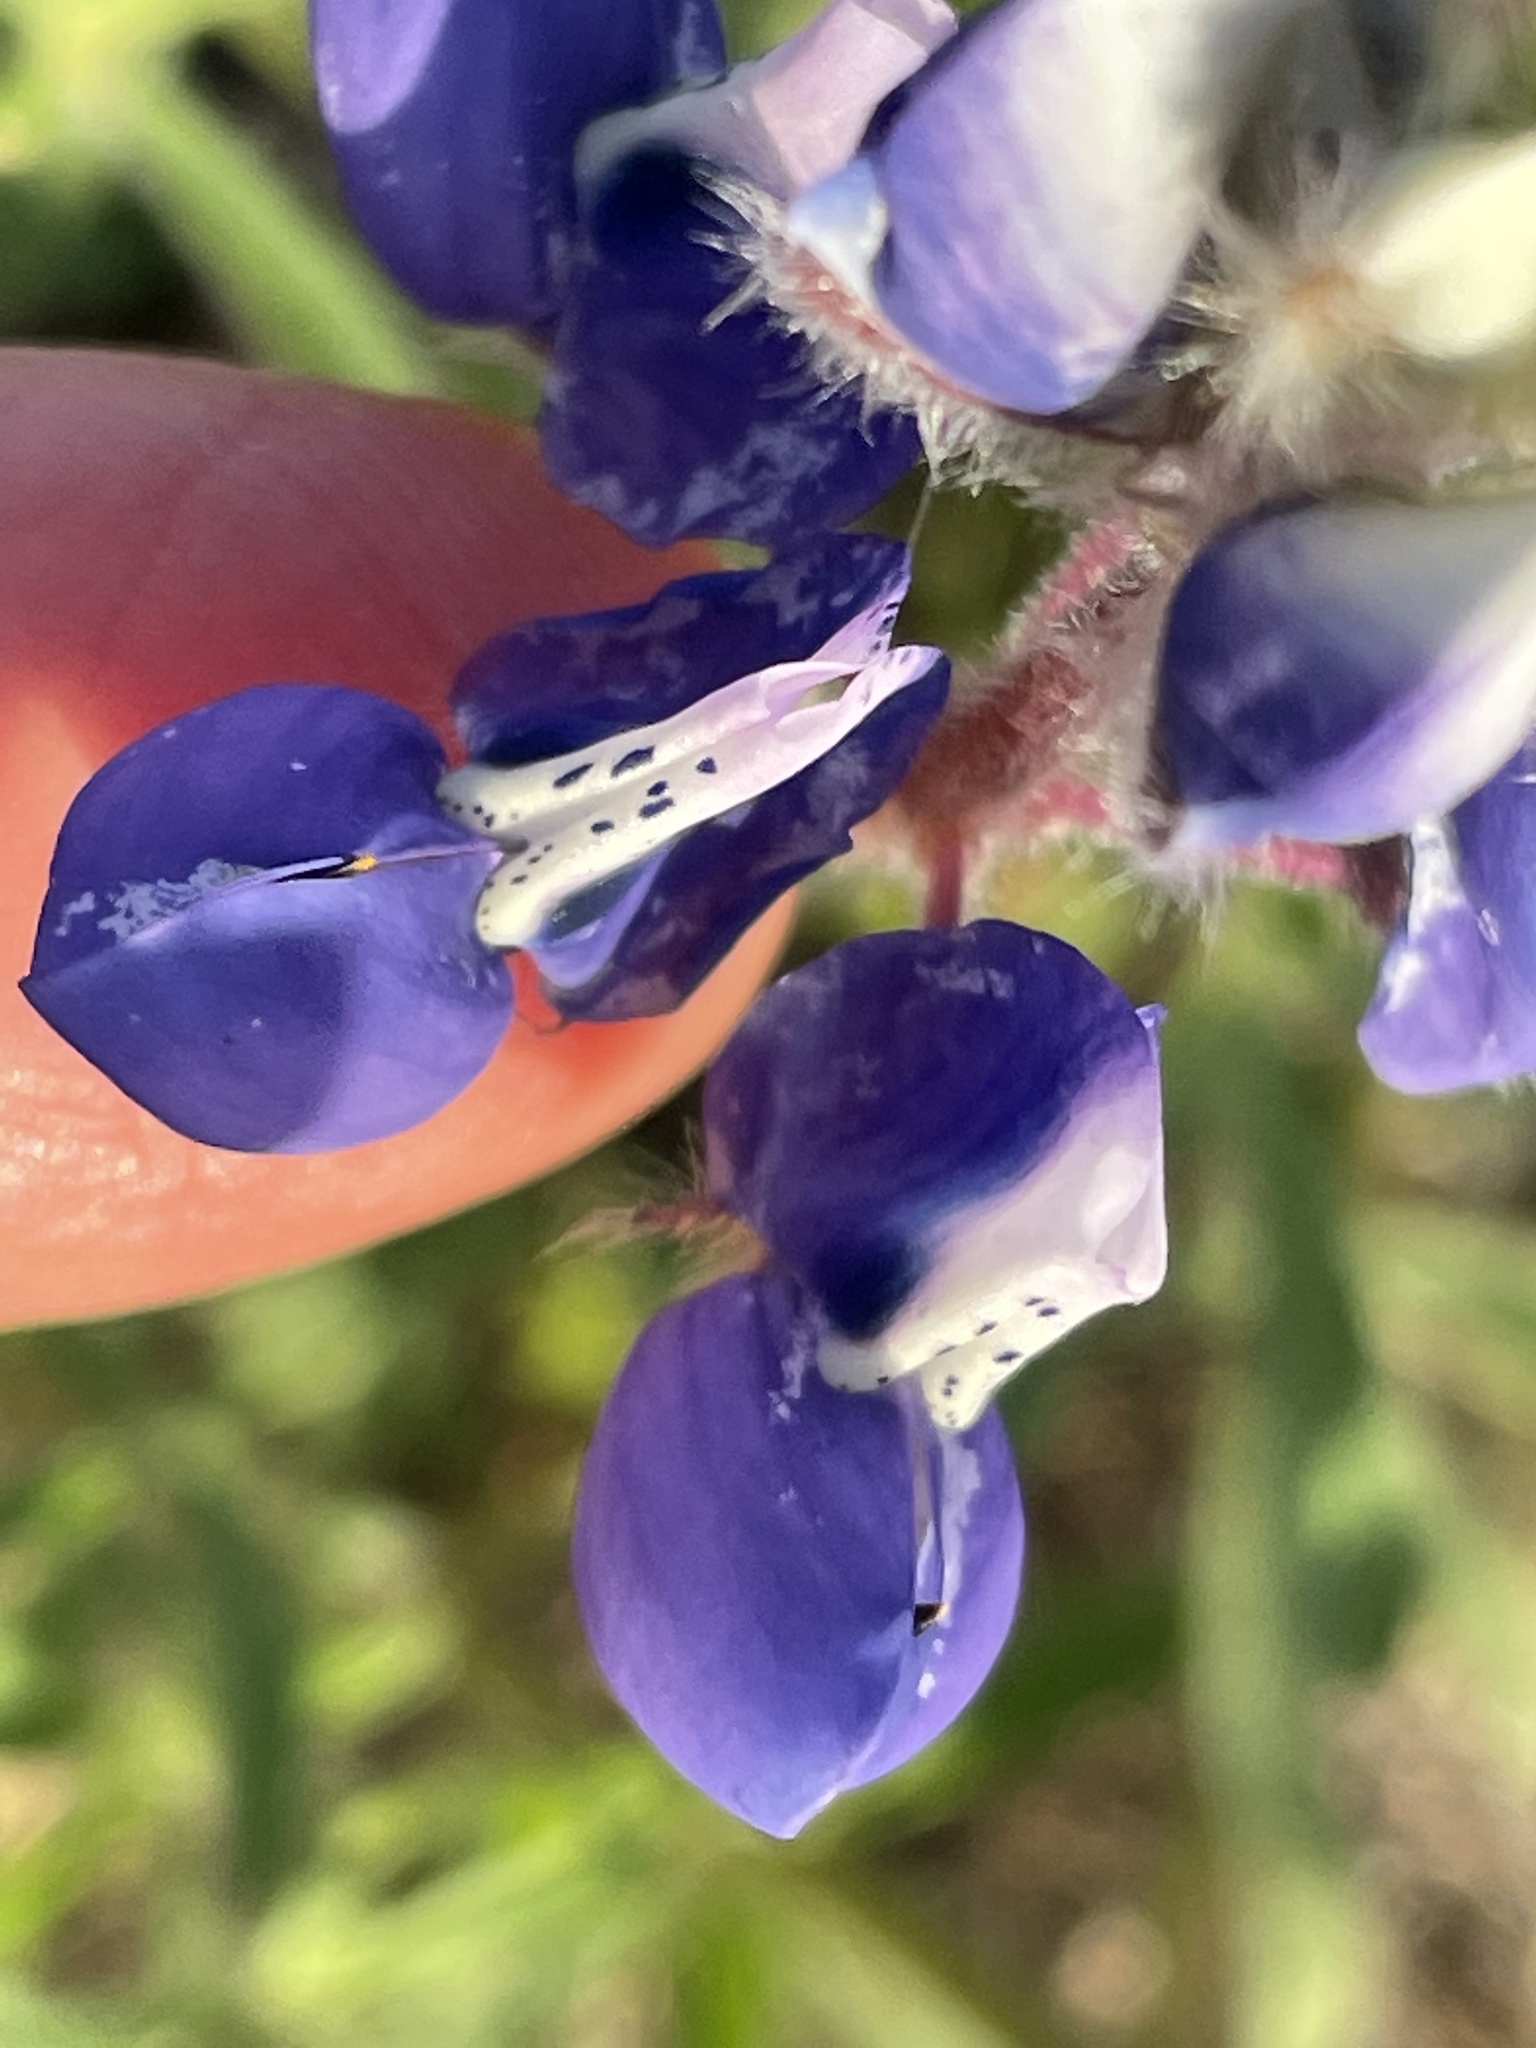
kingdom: Plantae
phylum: Tracheophyta
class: Magnoliopsida
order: Fabales
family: Fabaceae
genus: Lupinus
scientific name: Lupinus nanus
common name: Orean blue lupin
